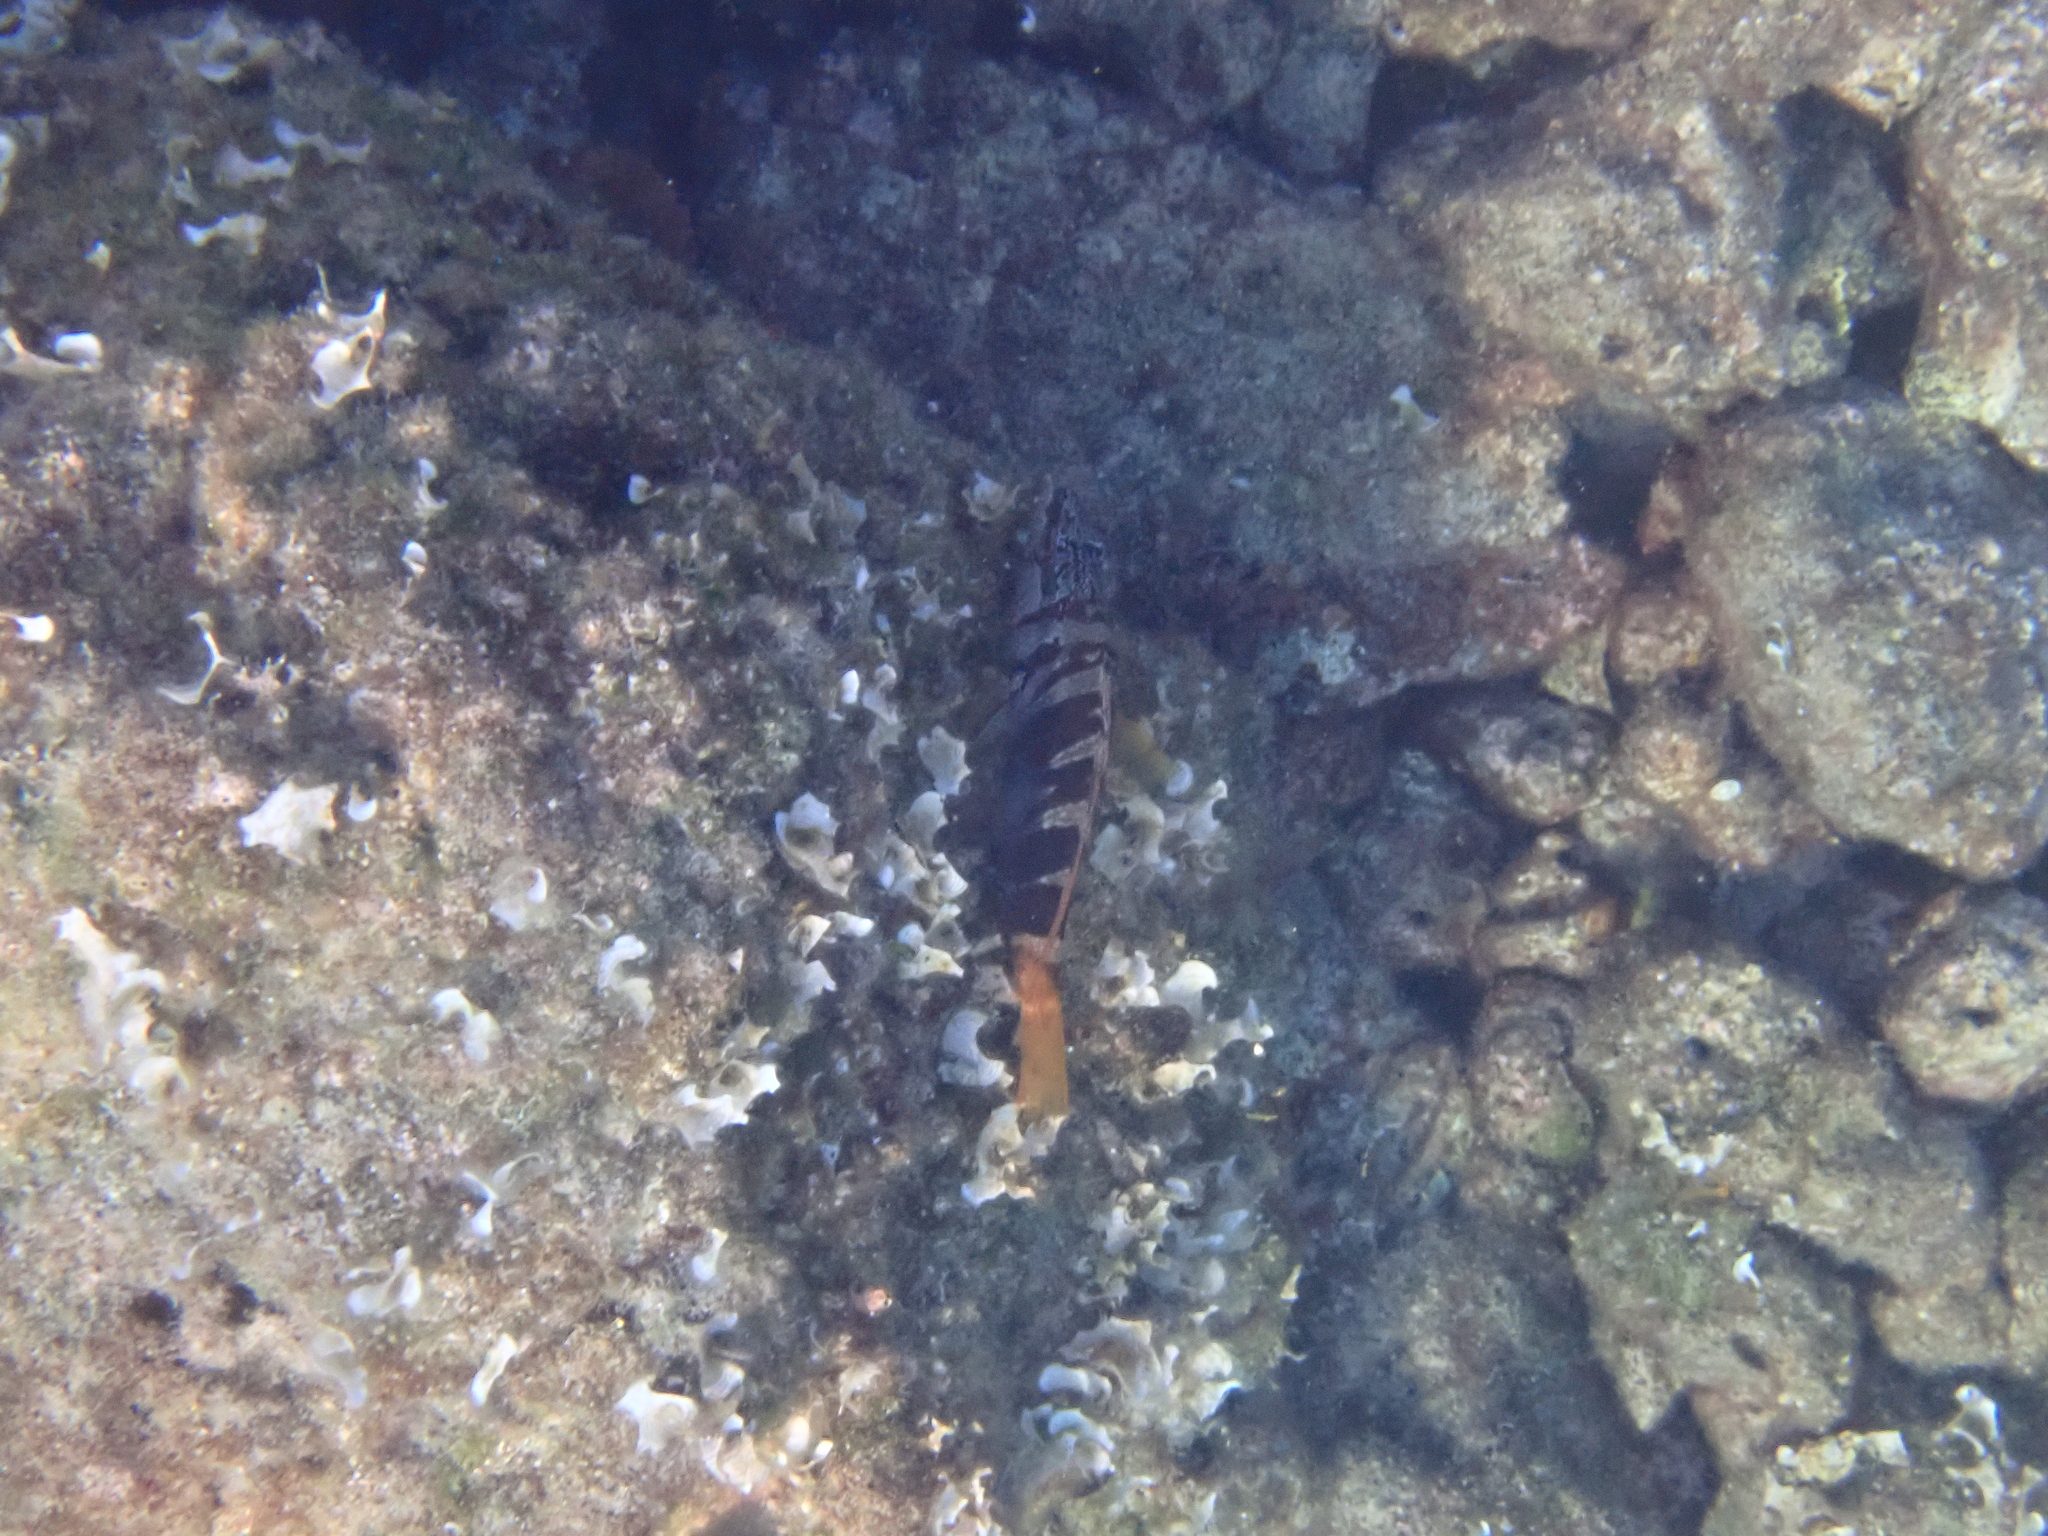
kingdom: Animalia
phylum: Chordata
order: Perciformes
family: Serranidae
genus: Serranus
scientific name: Serranus scriba
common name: Painted comber
